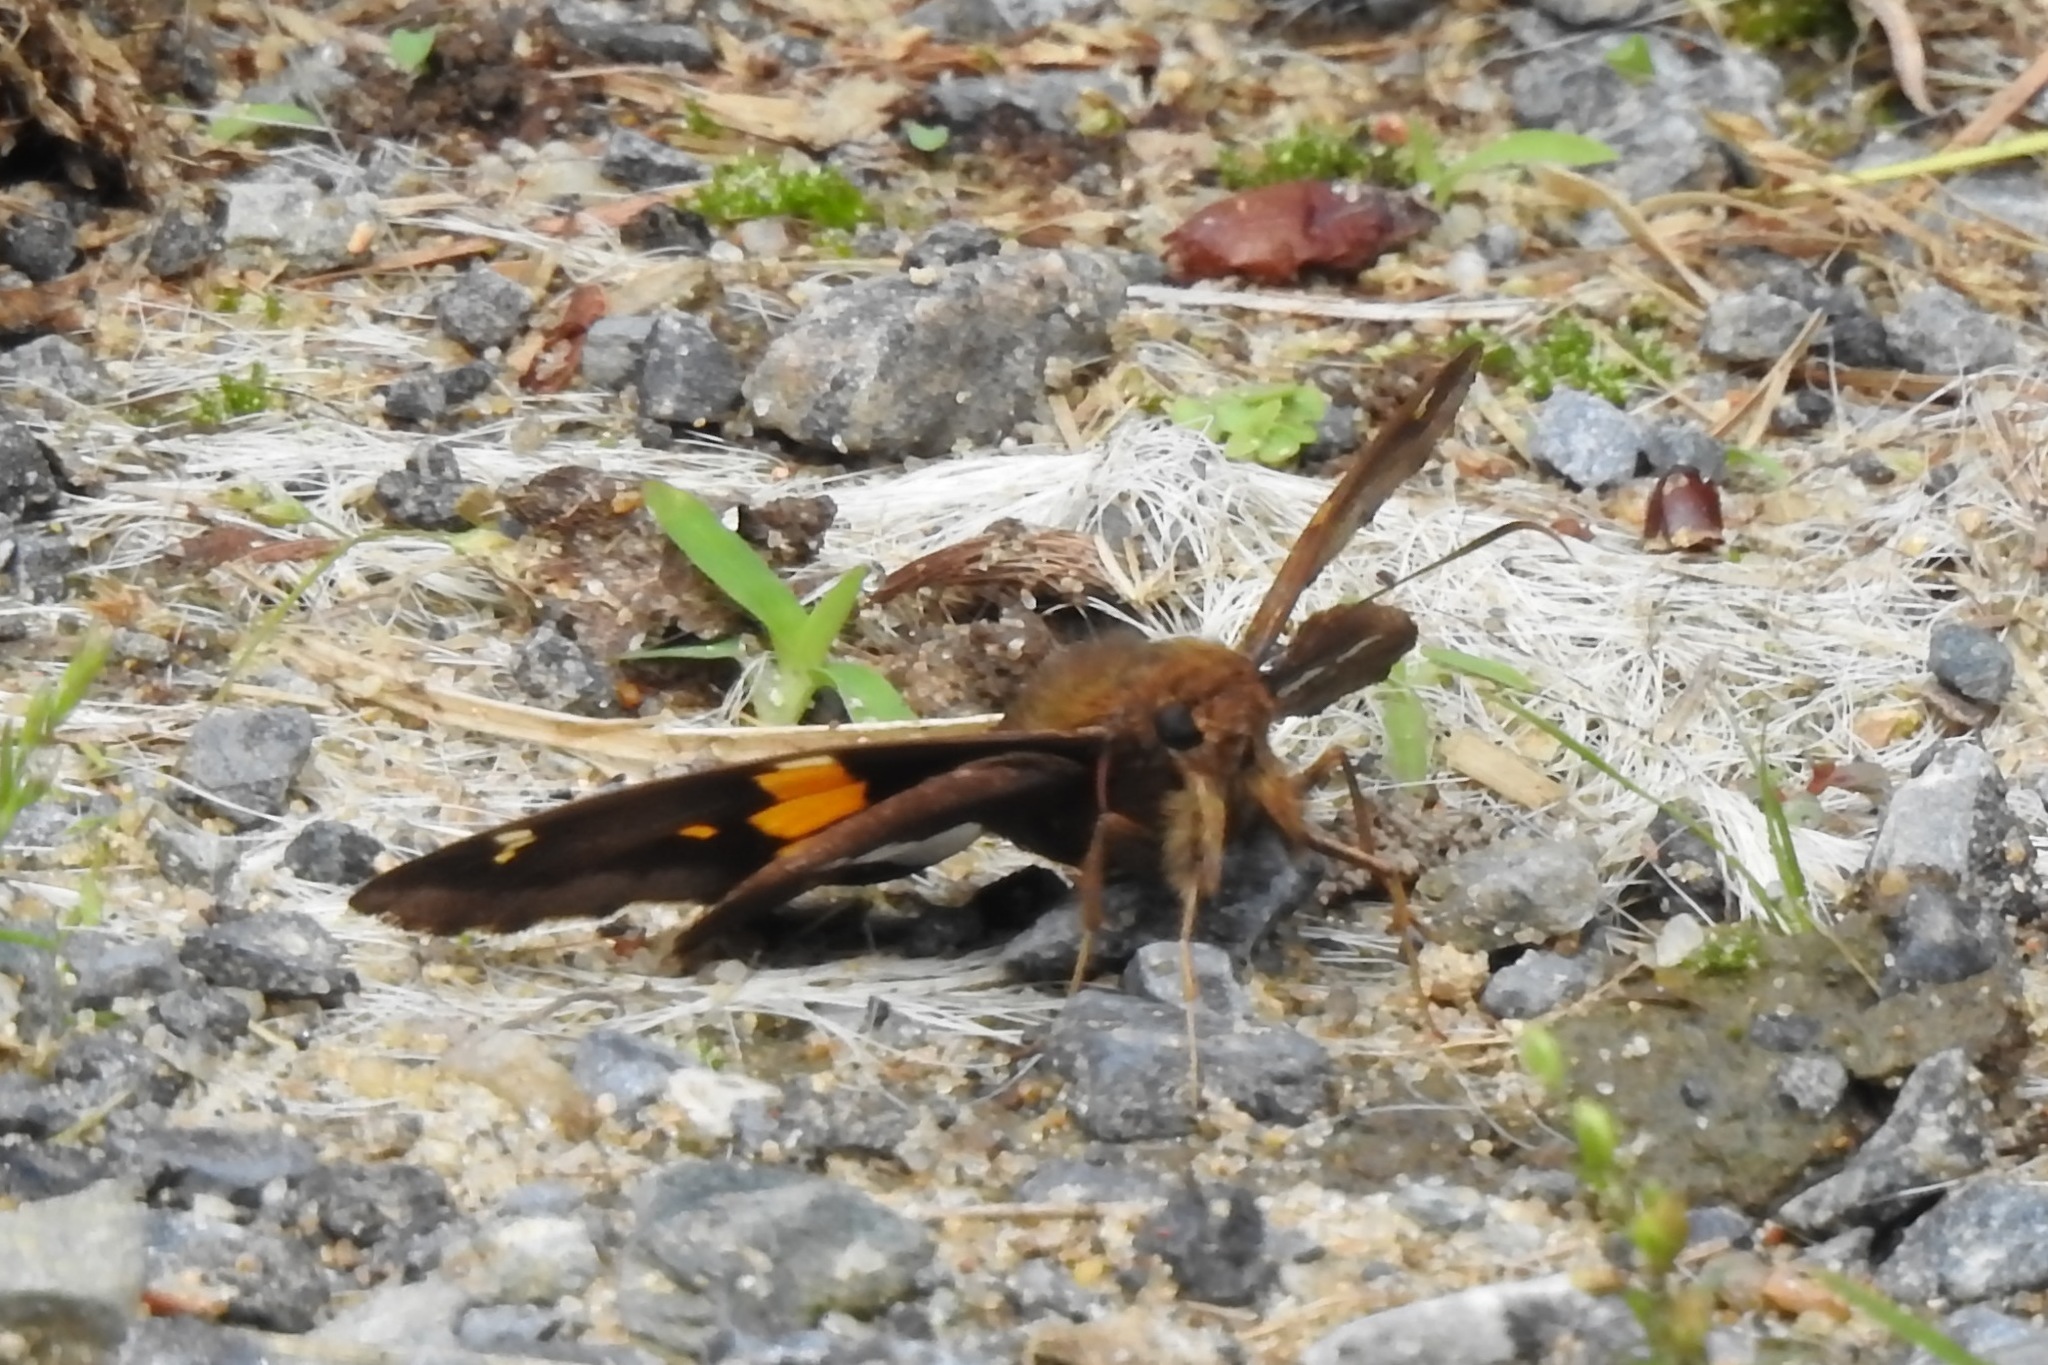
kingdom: Animalia
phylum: Arthropoda
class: Insecta
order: Lepidoptera
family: Hesperiidae
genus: Epargyreus
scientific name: Epargyreus clarus
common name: Silver-spotted skipper
